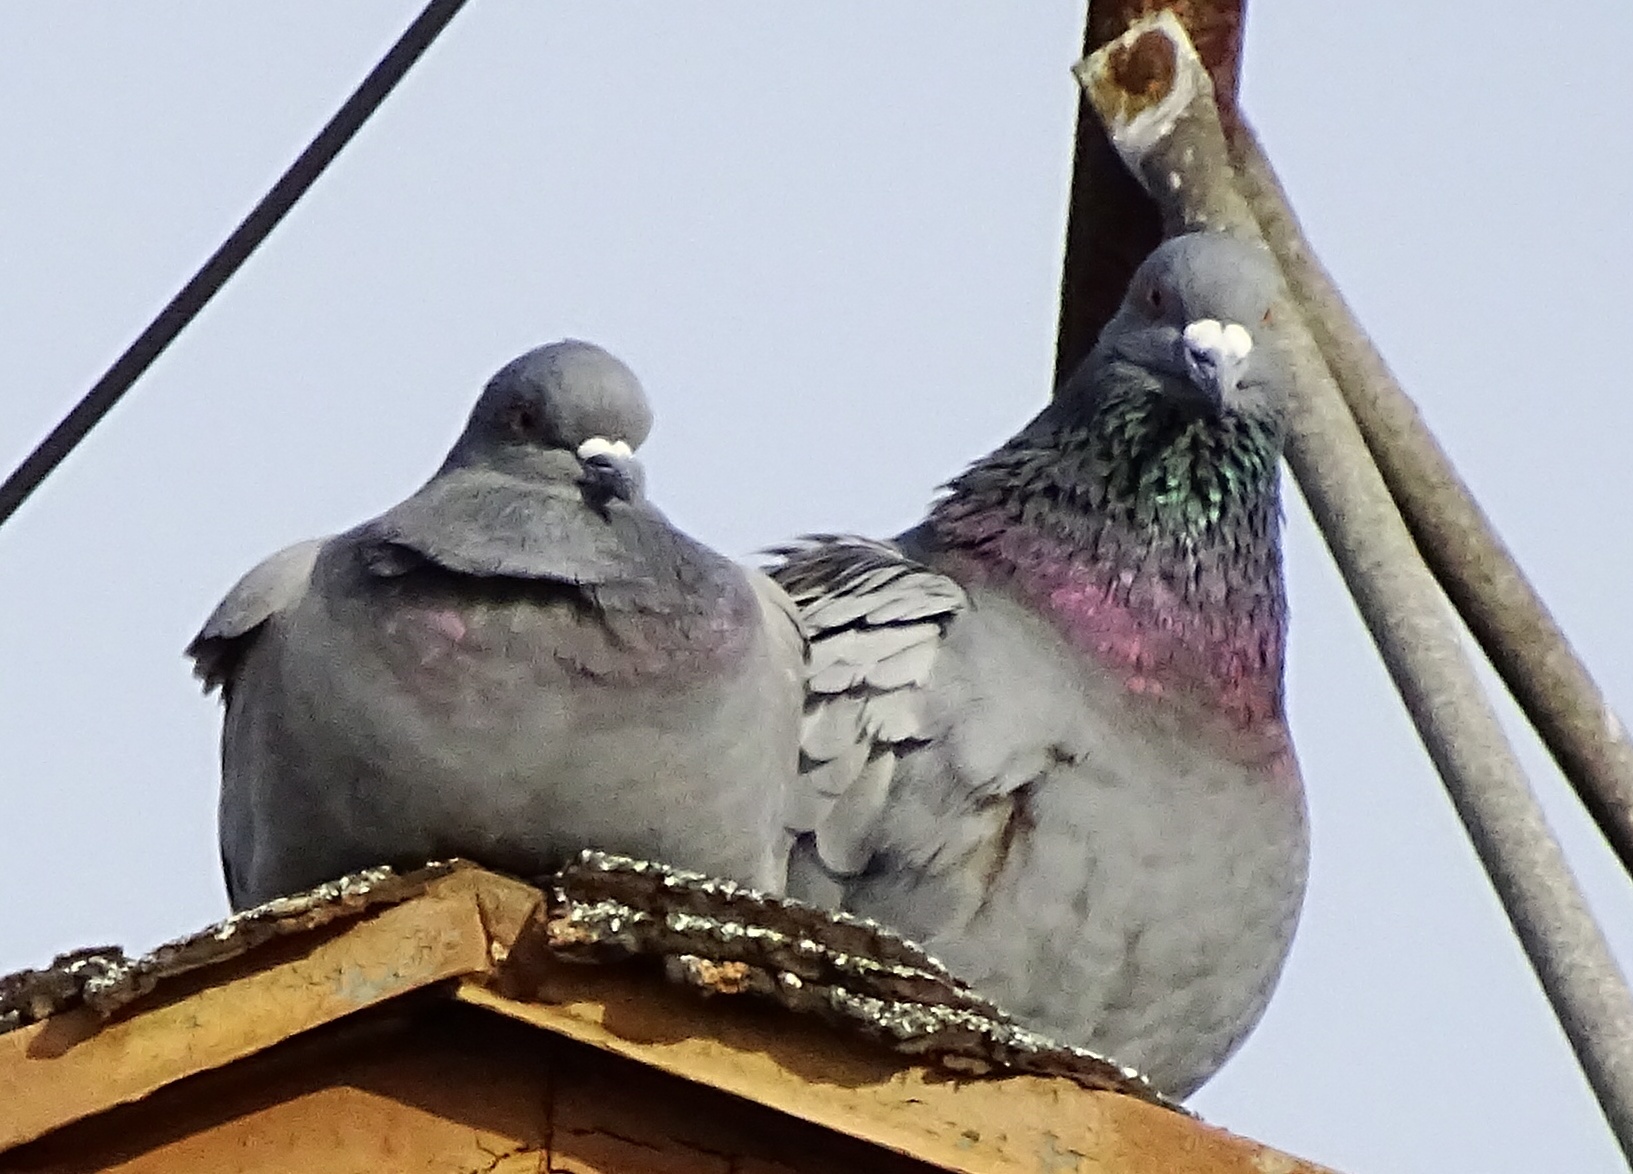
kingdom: Animalia
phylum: Chordata
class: Aves
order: Columbiformes
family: Columbidae
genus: Columba
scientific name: Columba livia
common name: Rock pigeon
